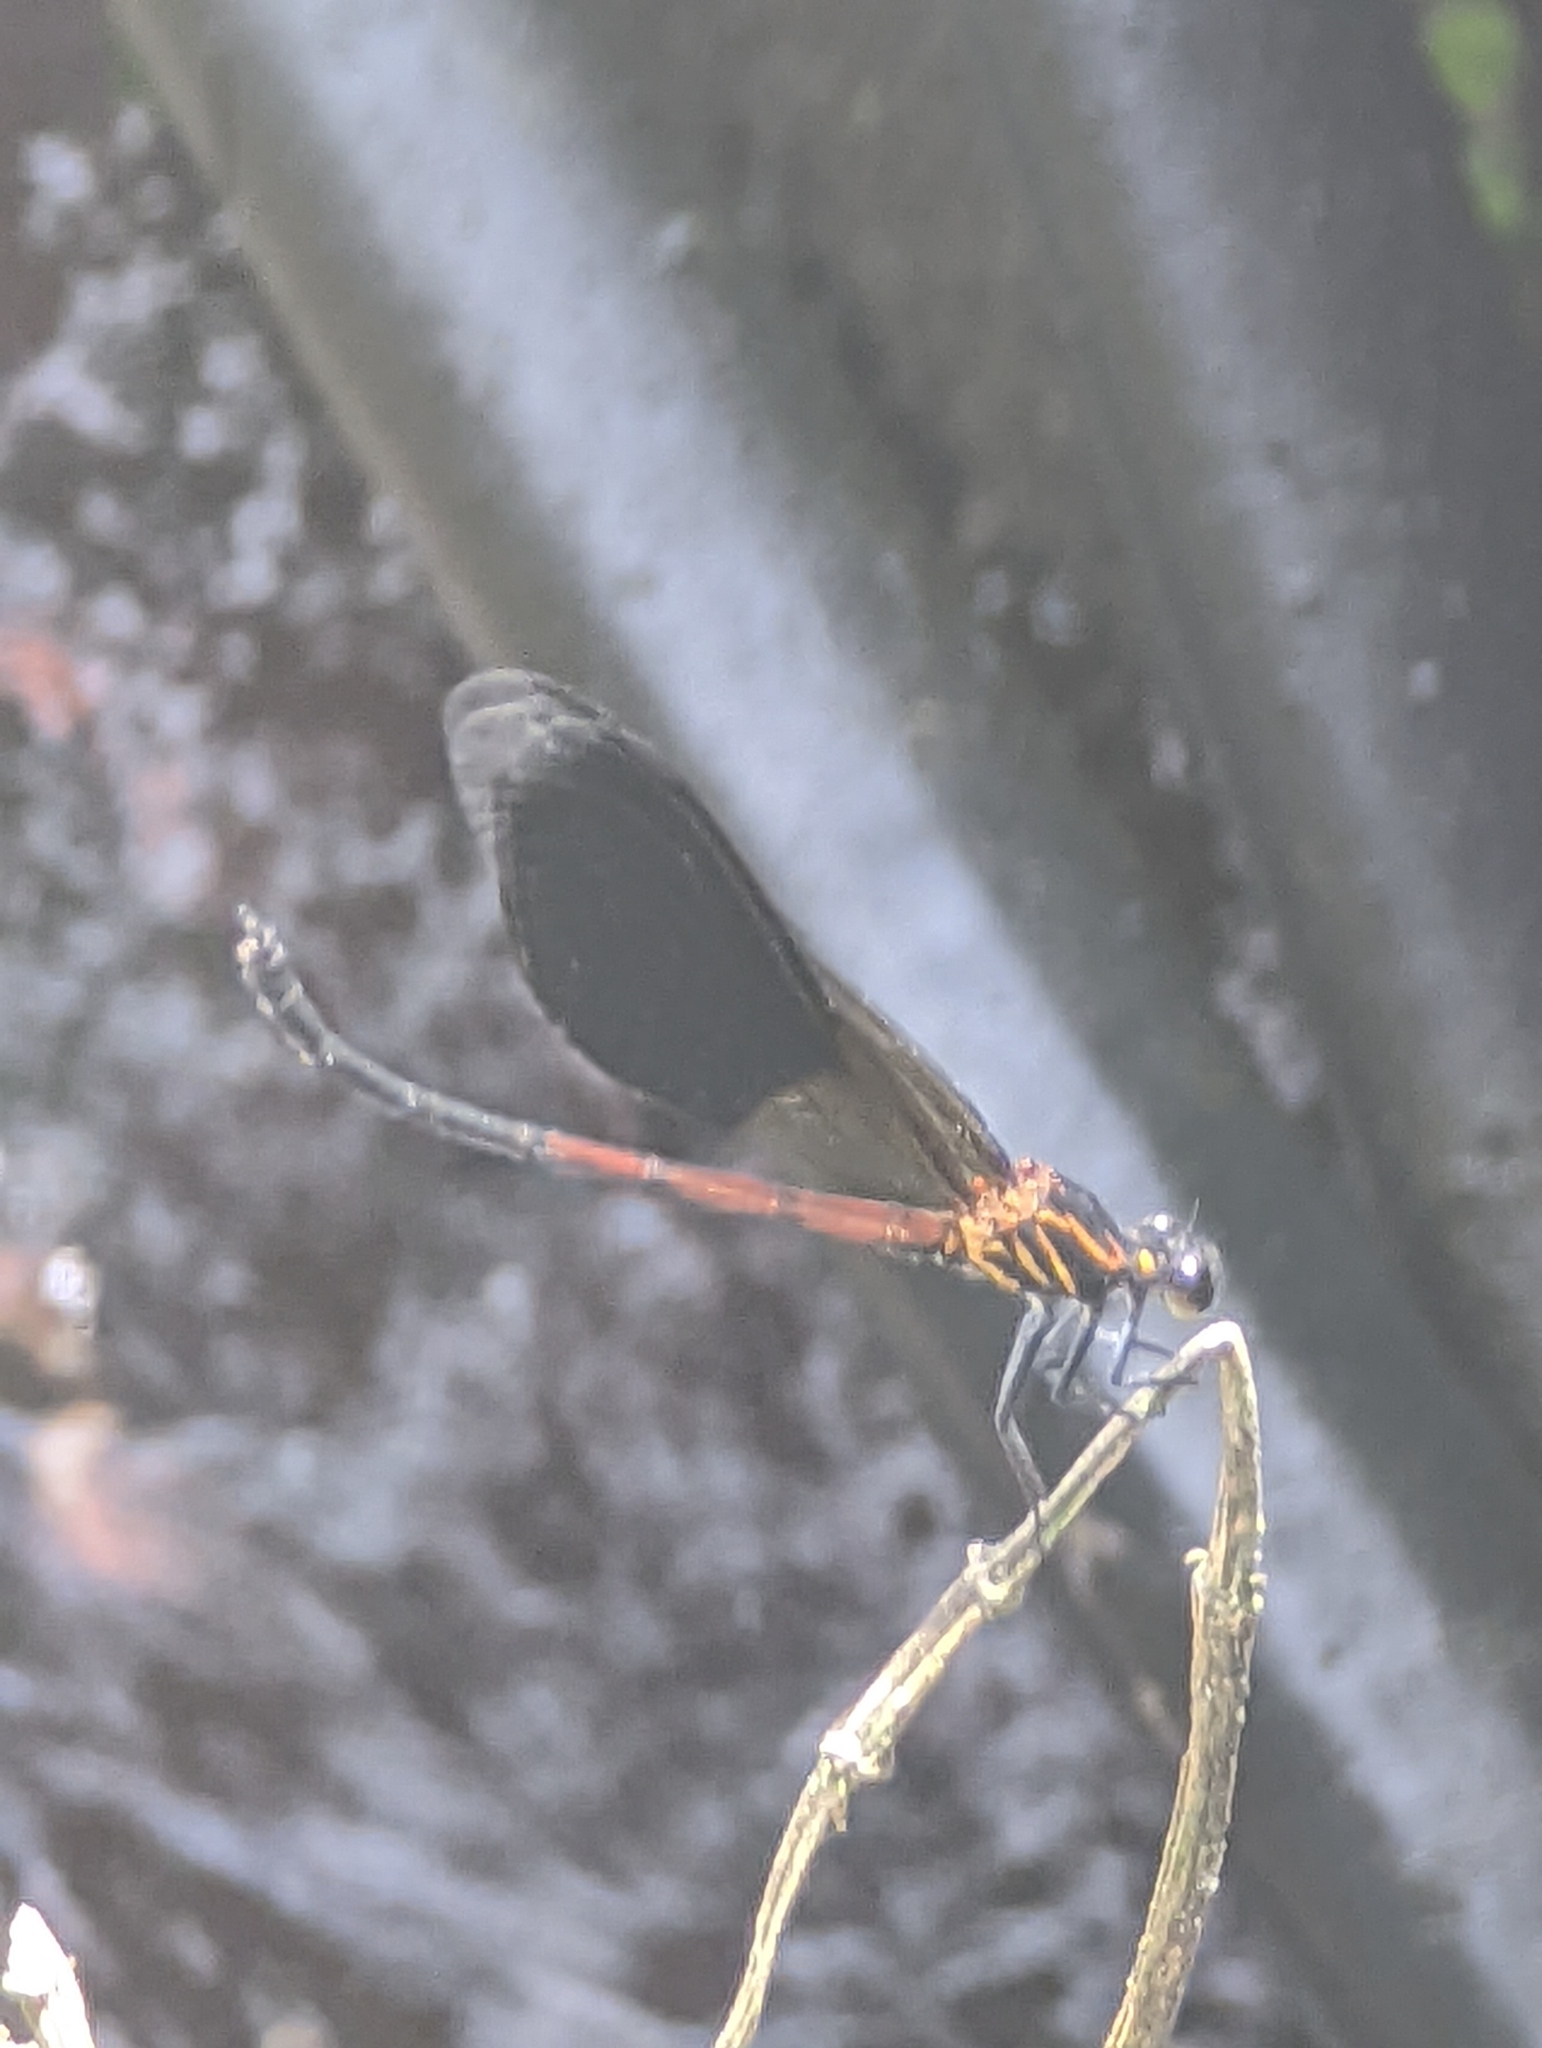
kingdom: Animalia
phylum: Arthropoda
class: Insecta
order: Odonata
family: Euphaeidae
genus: Euphaea
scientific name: Euphaea formosa
